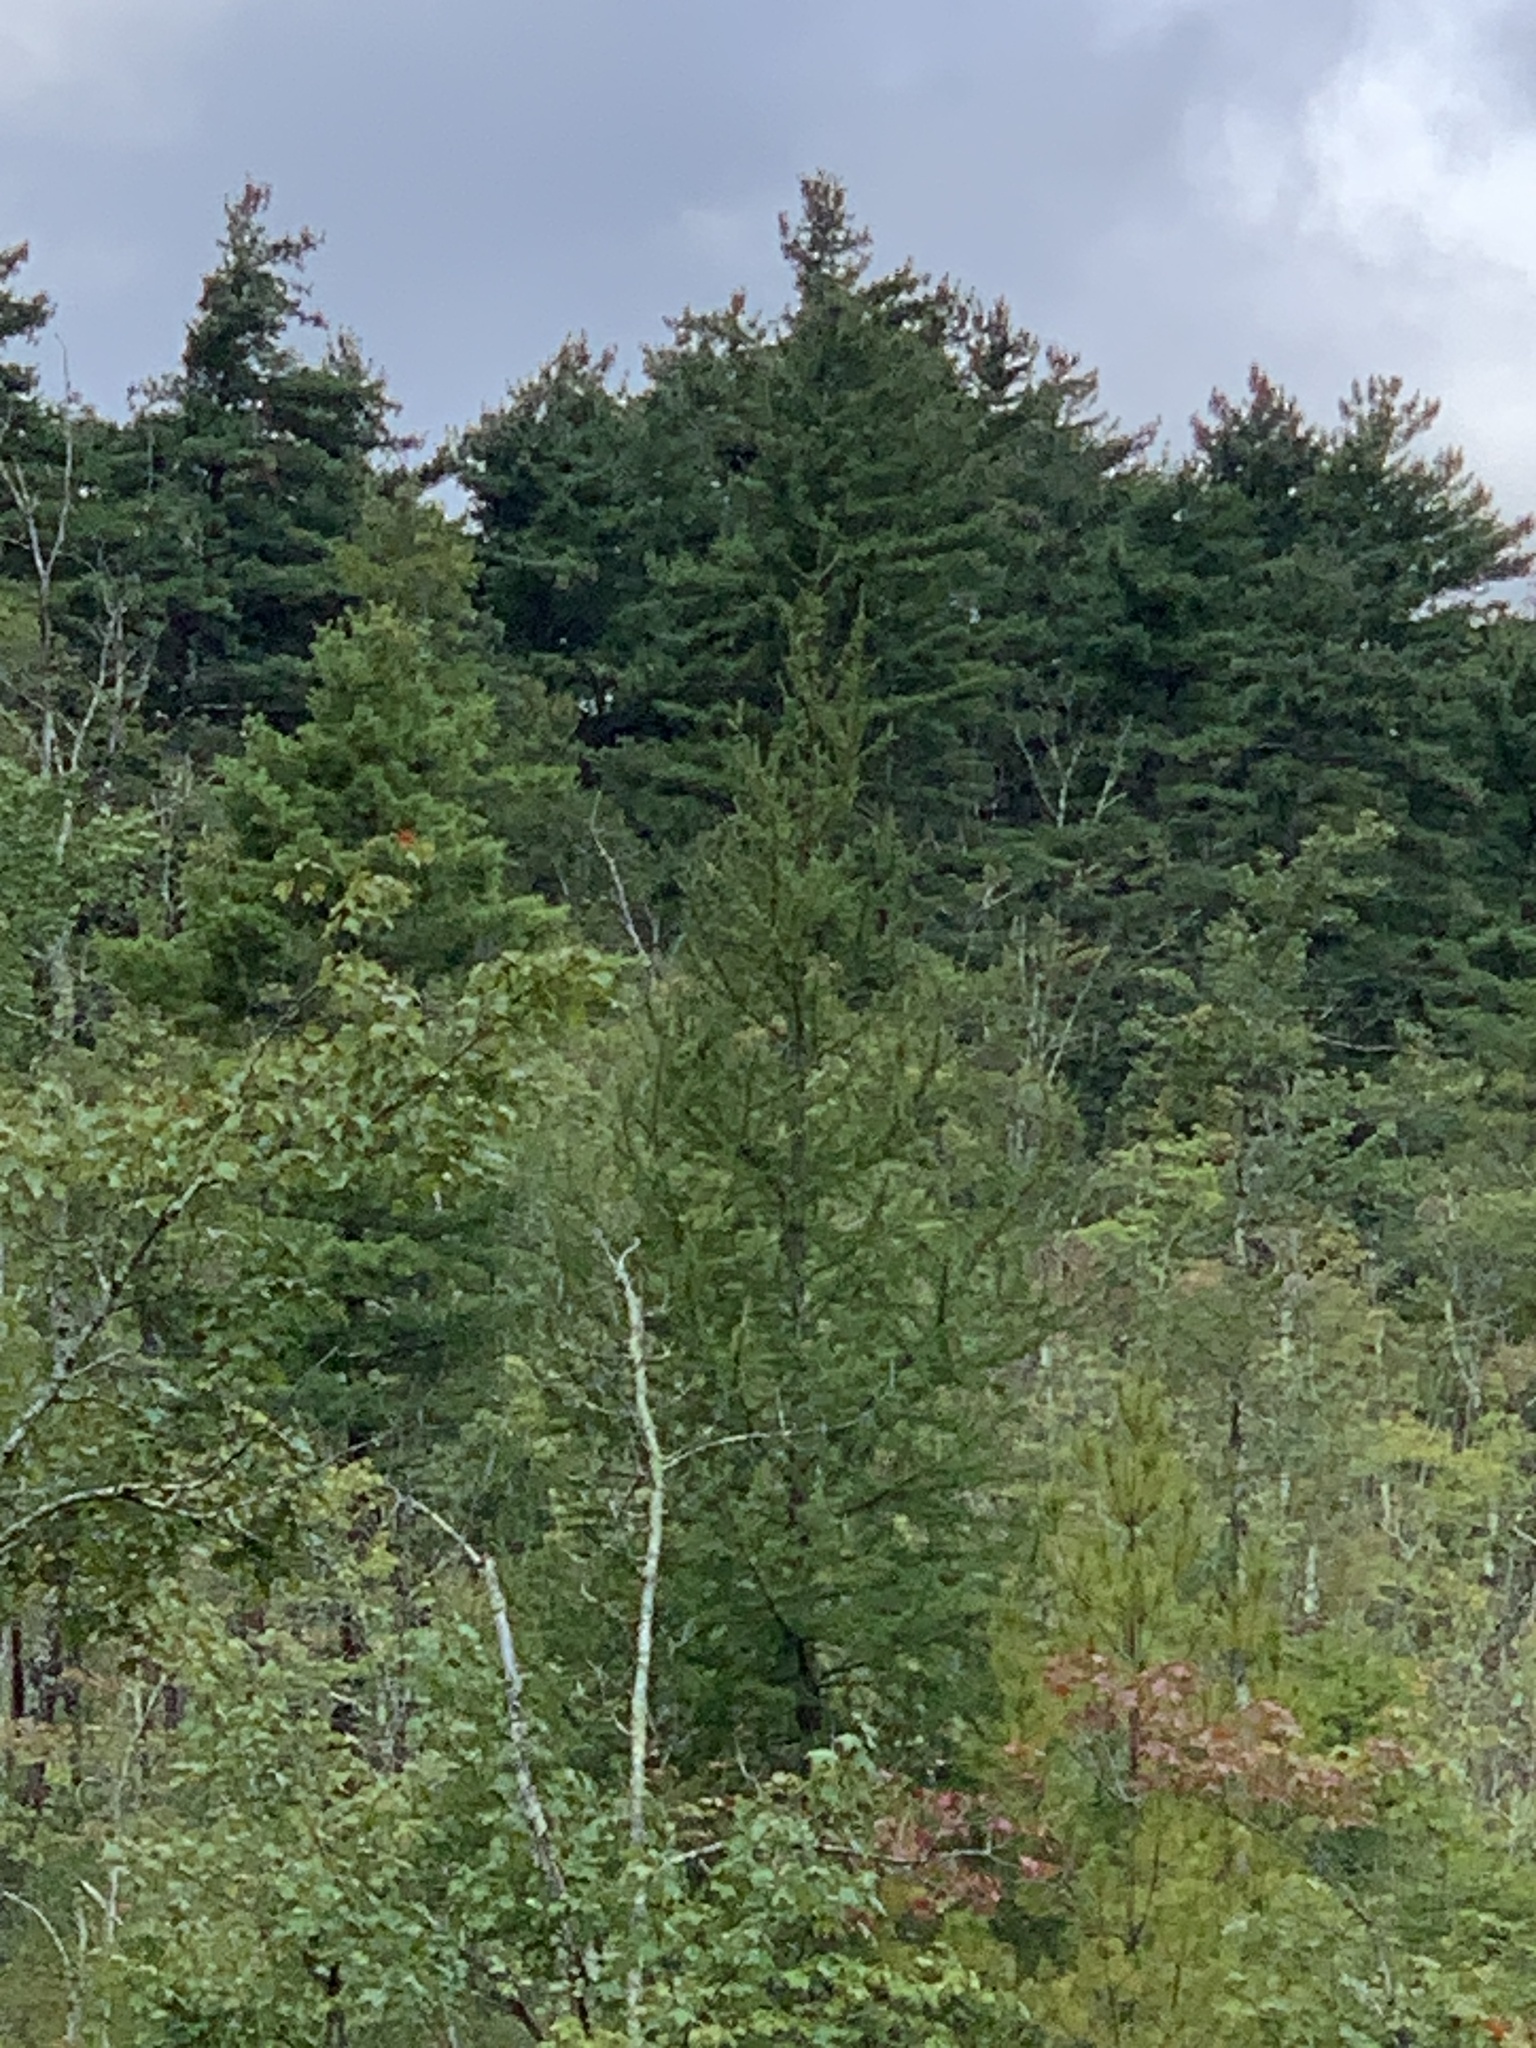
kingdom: Plantae
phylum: Tracheophyta
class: Pinopsida
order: Pinales
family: Pinaceae
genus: Larix
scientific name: Larix laricina
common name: American larch
